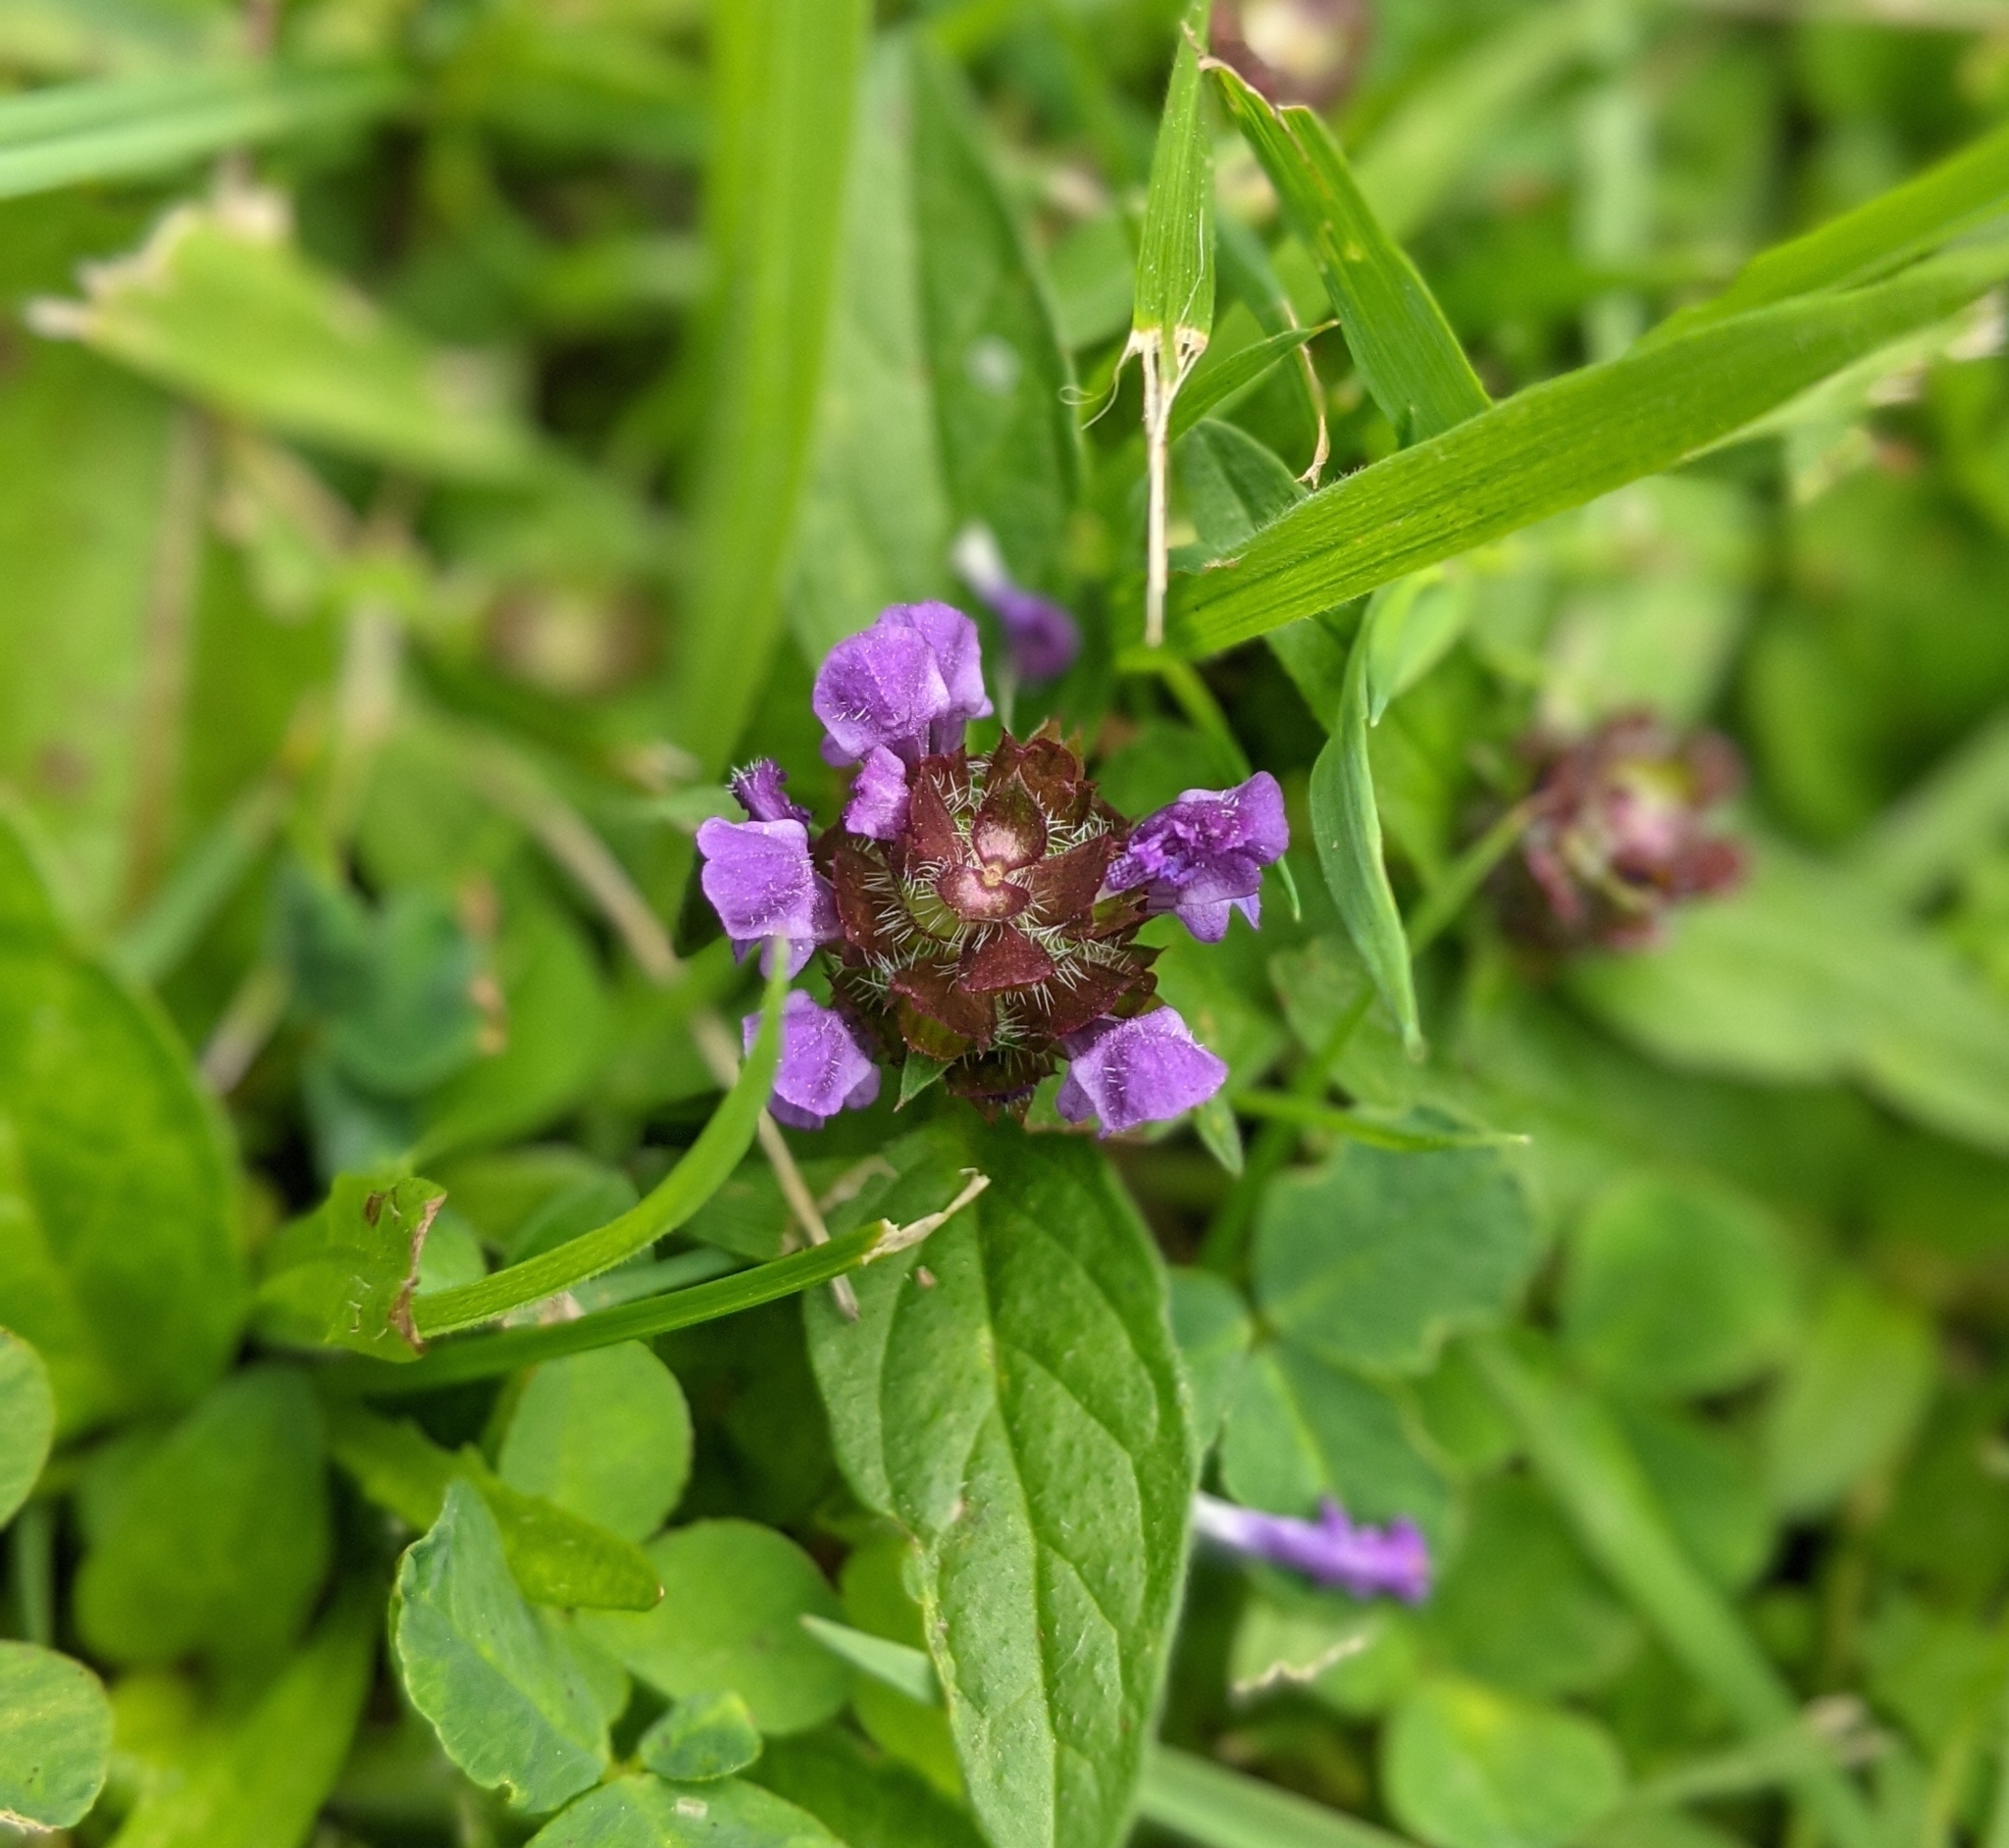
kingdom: Plantae
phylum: Tracheophyta
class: Magnoliopsida
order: Lamiales
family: Lamiaceae
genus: Prunella
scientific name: Prunella vulgaris
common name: Heal-all
